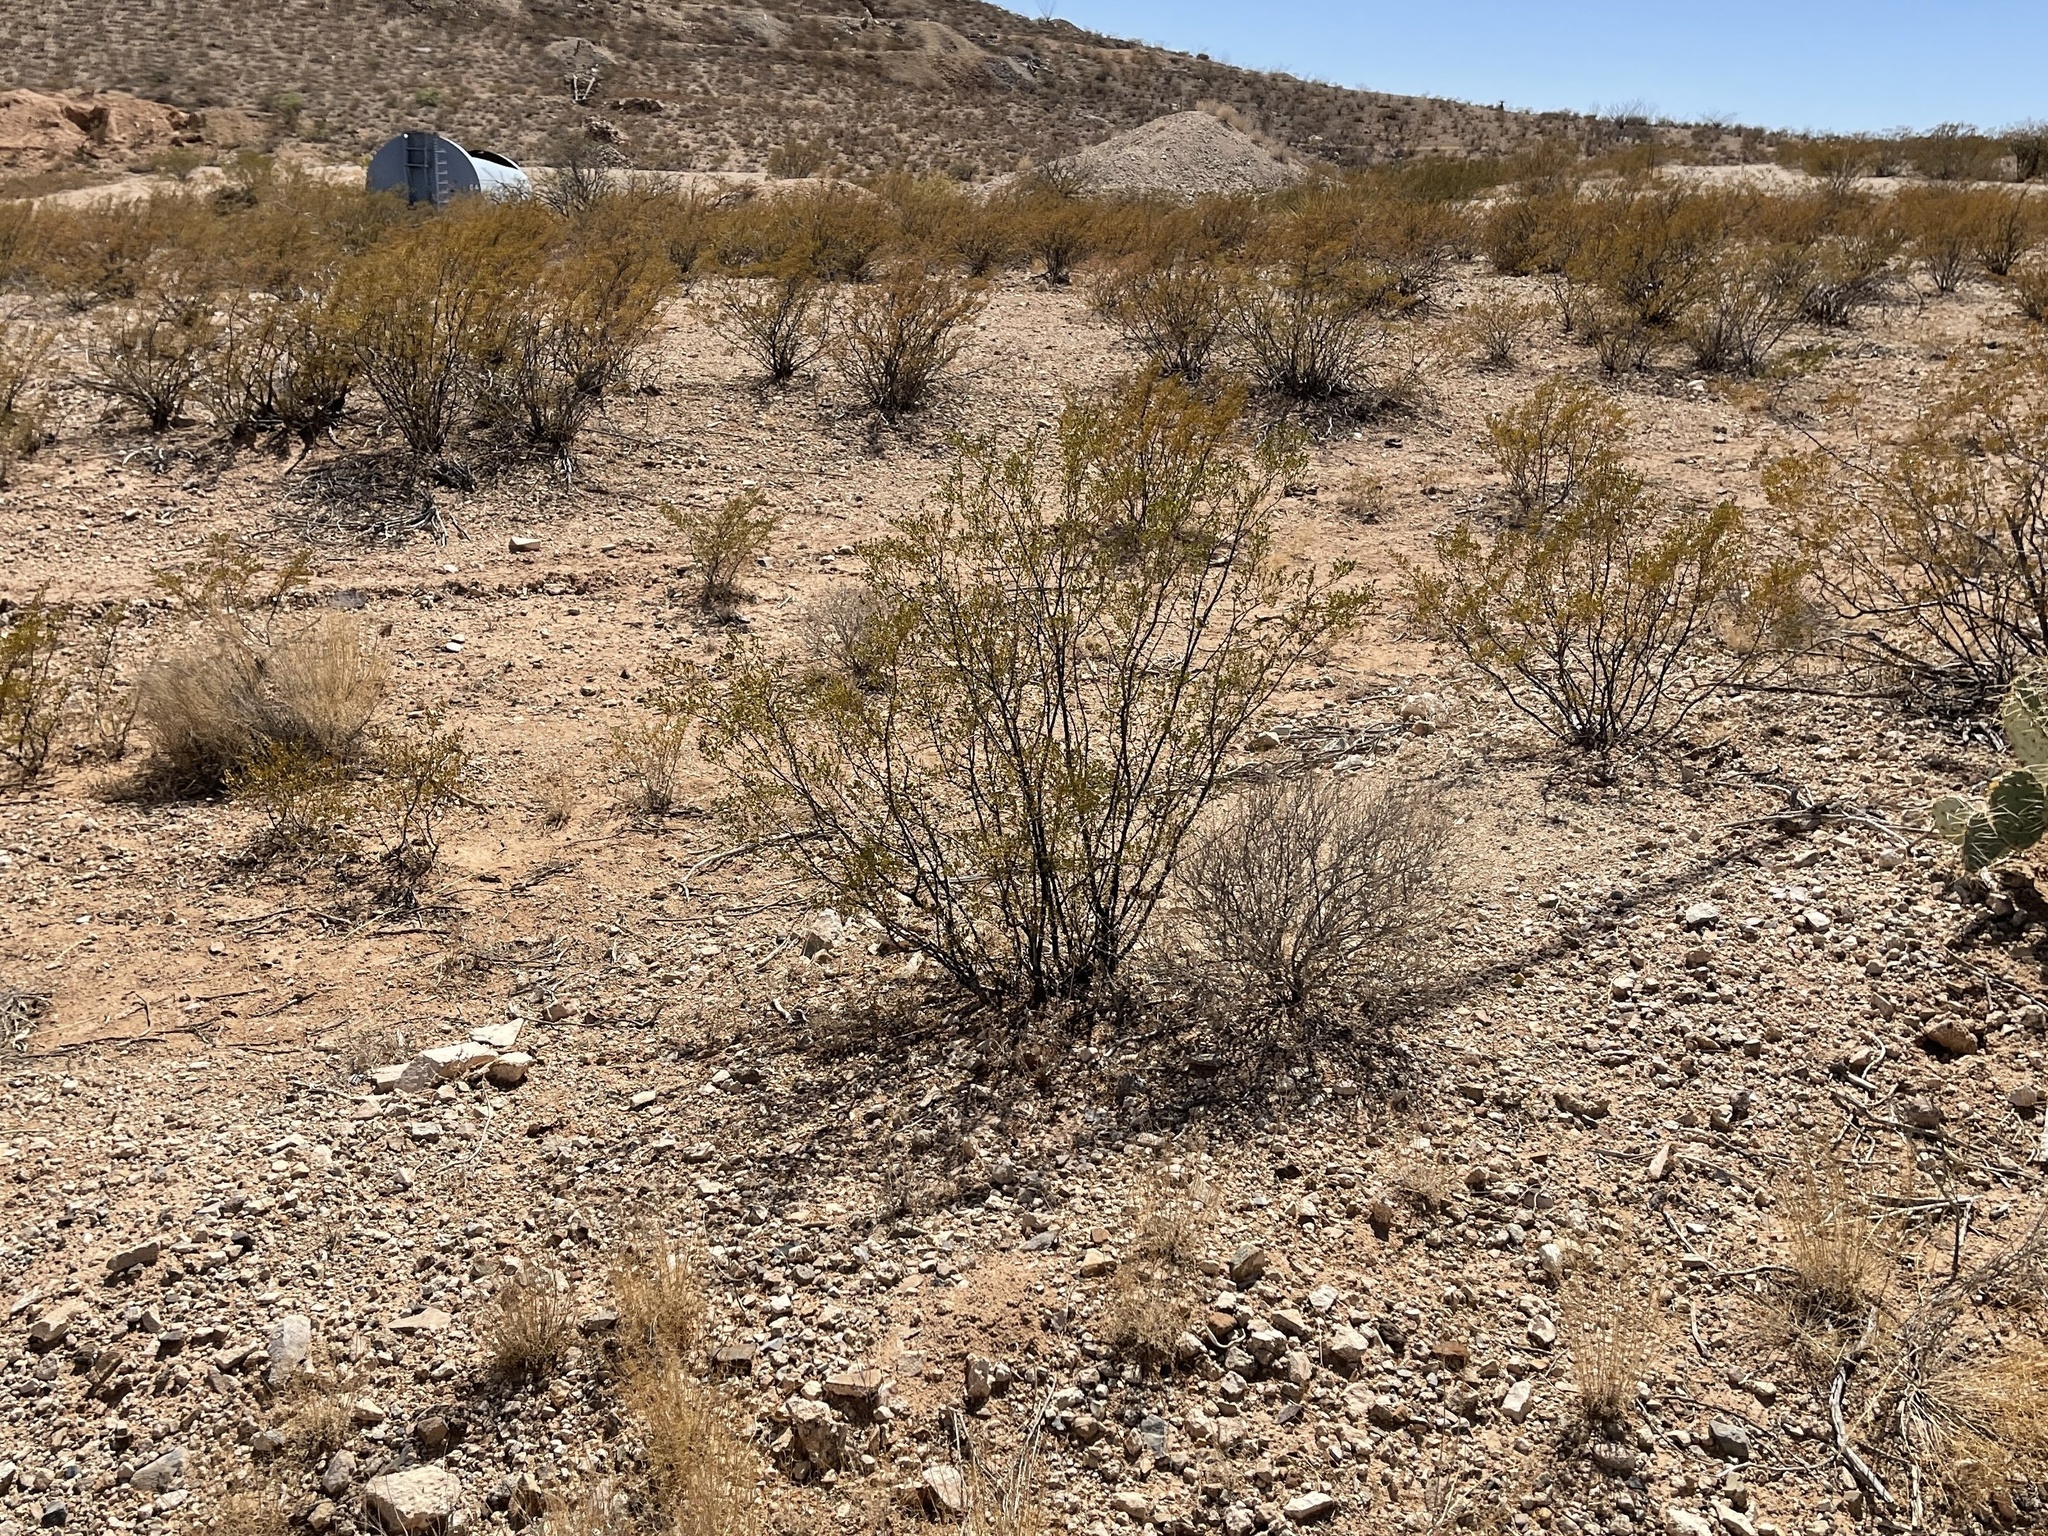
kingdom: Plantae
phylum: Tracheophyta
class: Magnoliopsida
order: Zygophyllales
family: Zygophyllaceae
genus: Larrea
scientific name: Larrea tridentata
